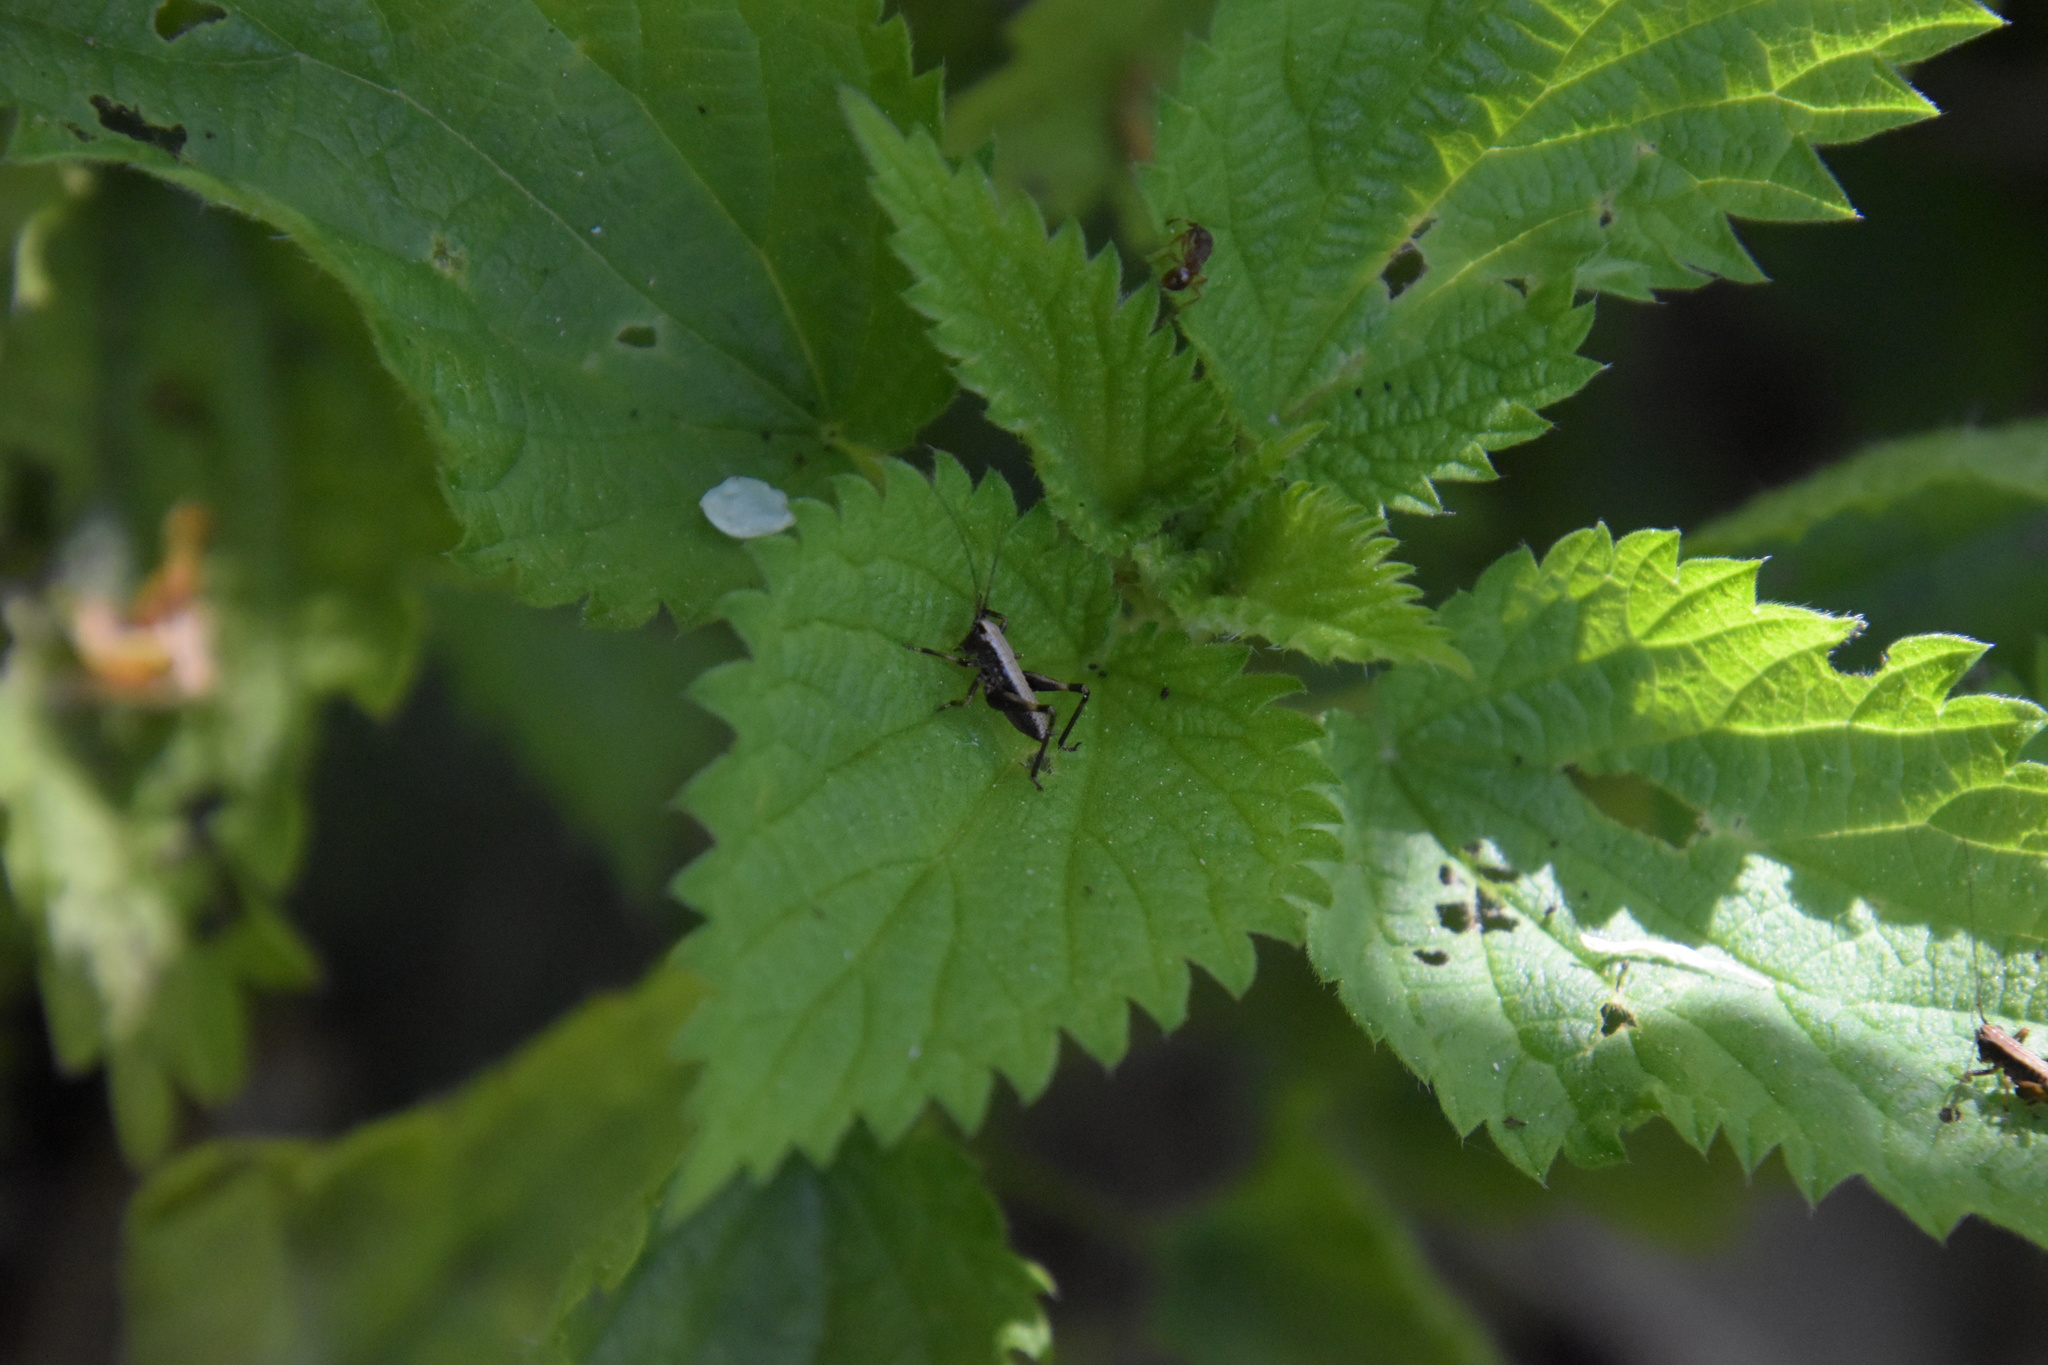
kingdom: Animalia
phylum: Arthropoda
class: Insecta
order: Orthoptera
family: Tettigoniidae
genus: Pholidoptera
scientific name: Pholidoptera griseoaptera
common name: Dark bush-cricket
